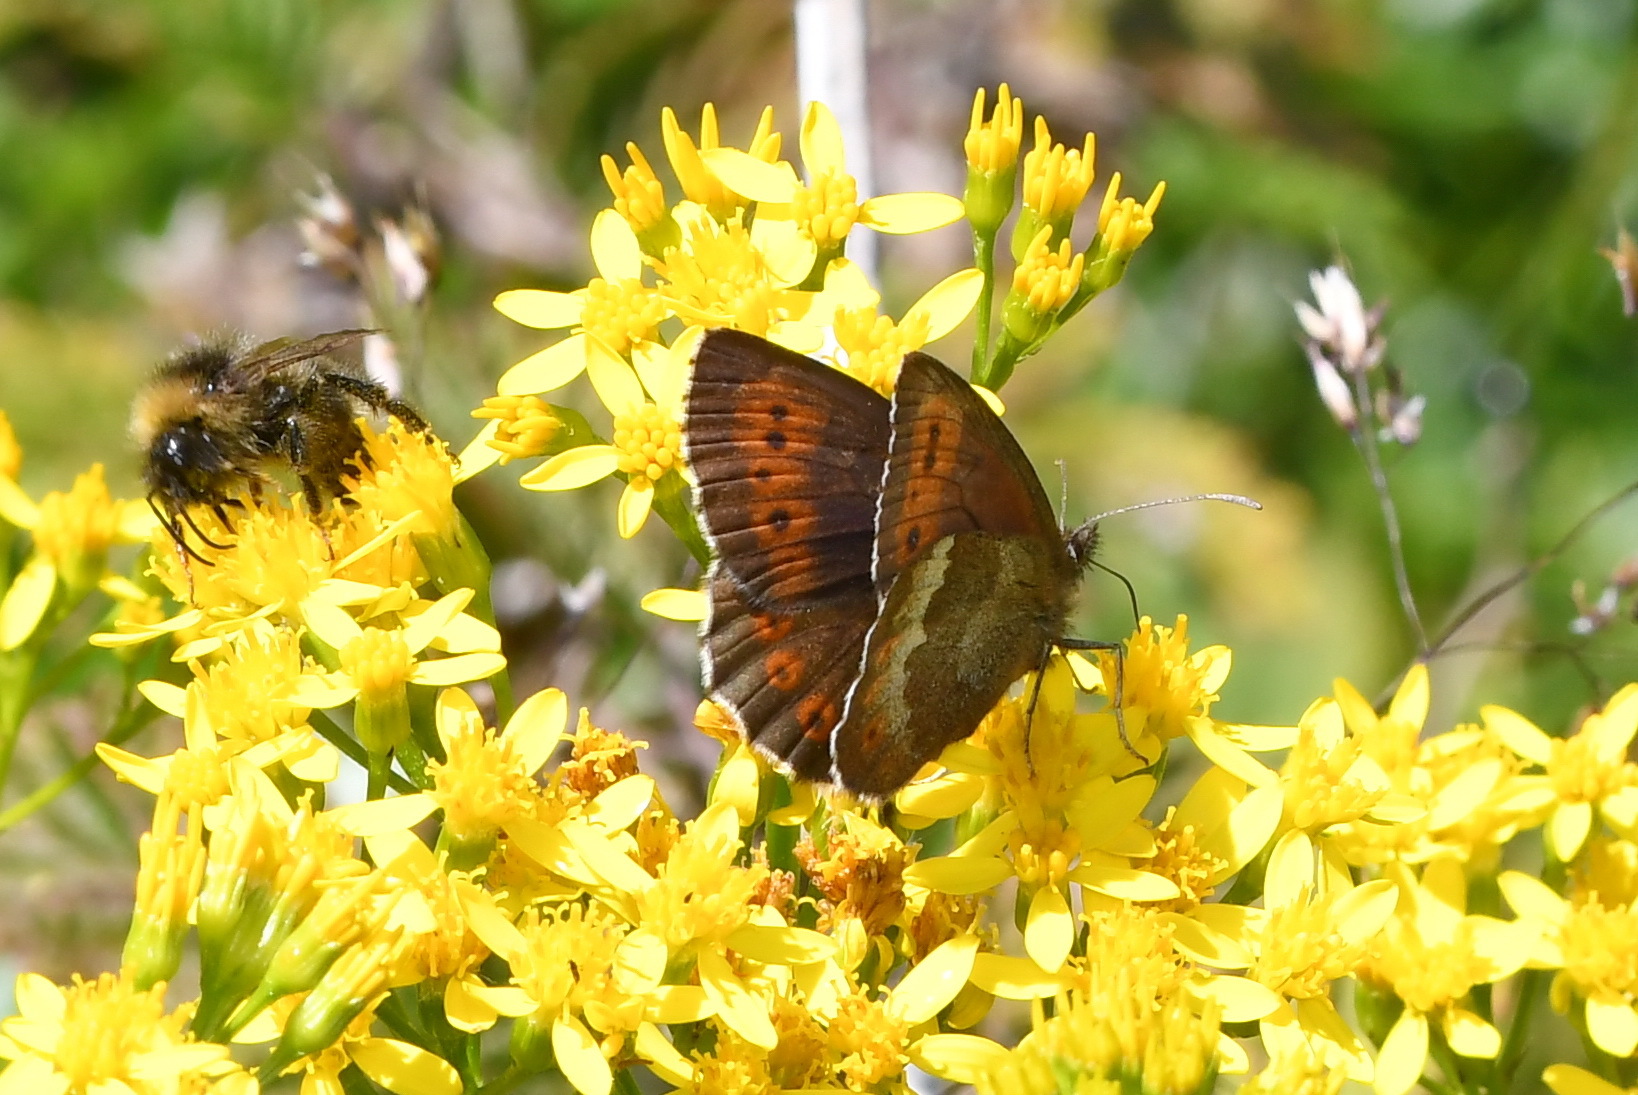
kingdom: Animalia
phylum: Arthropoda
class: Insecta
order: Lepidoptera
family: Nymphalidae
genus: Erebia
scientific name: Erebia euryale
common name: Large ringlet
